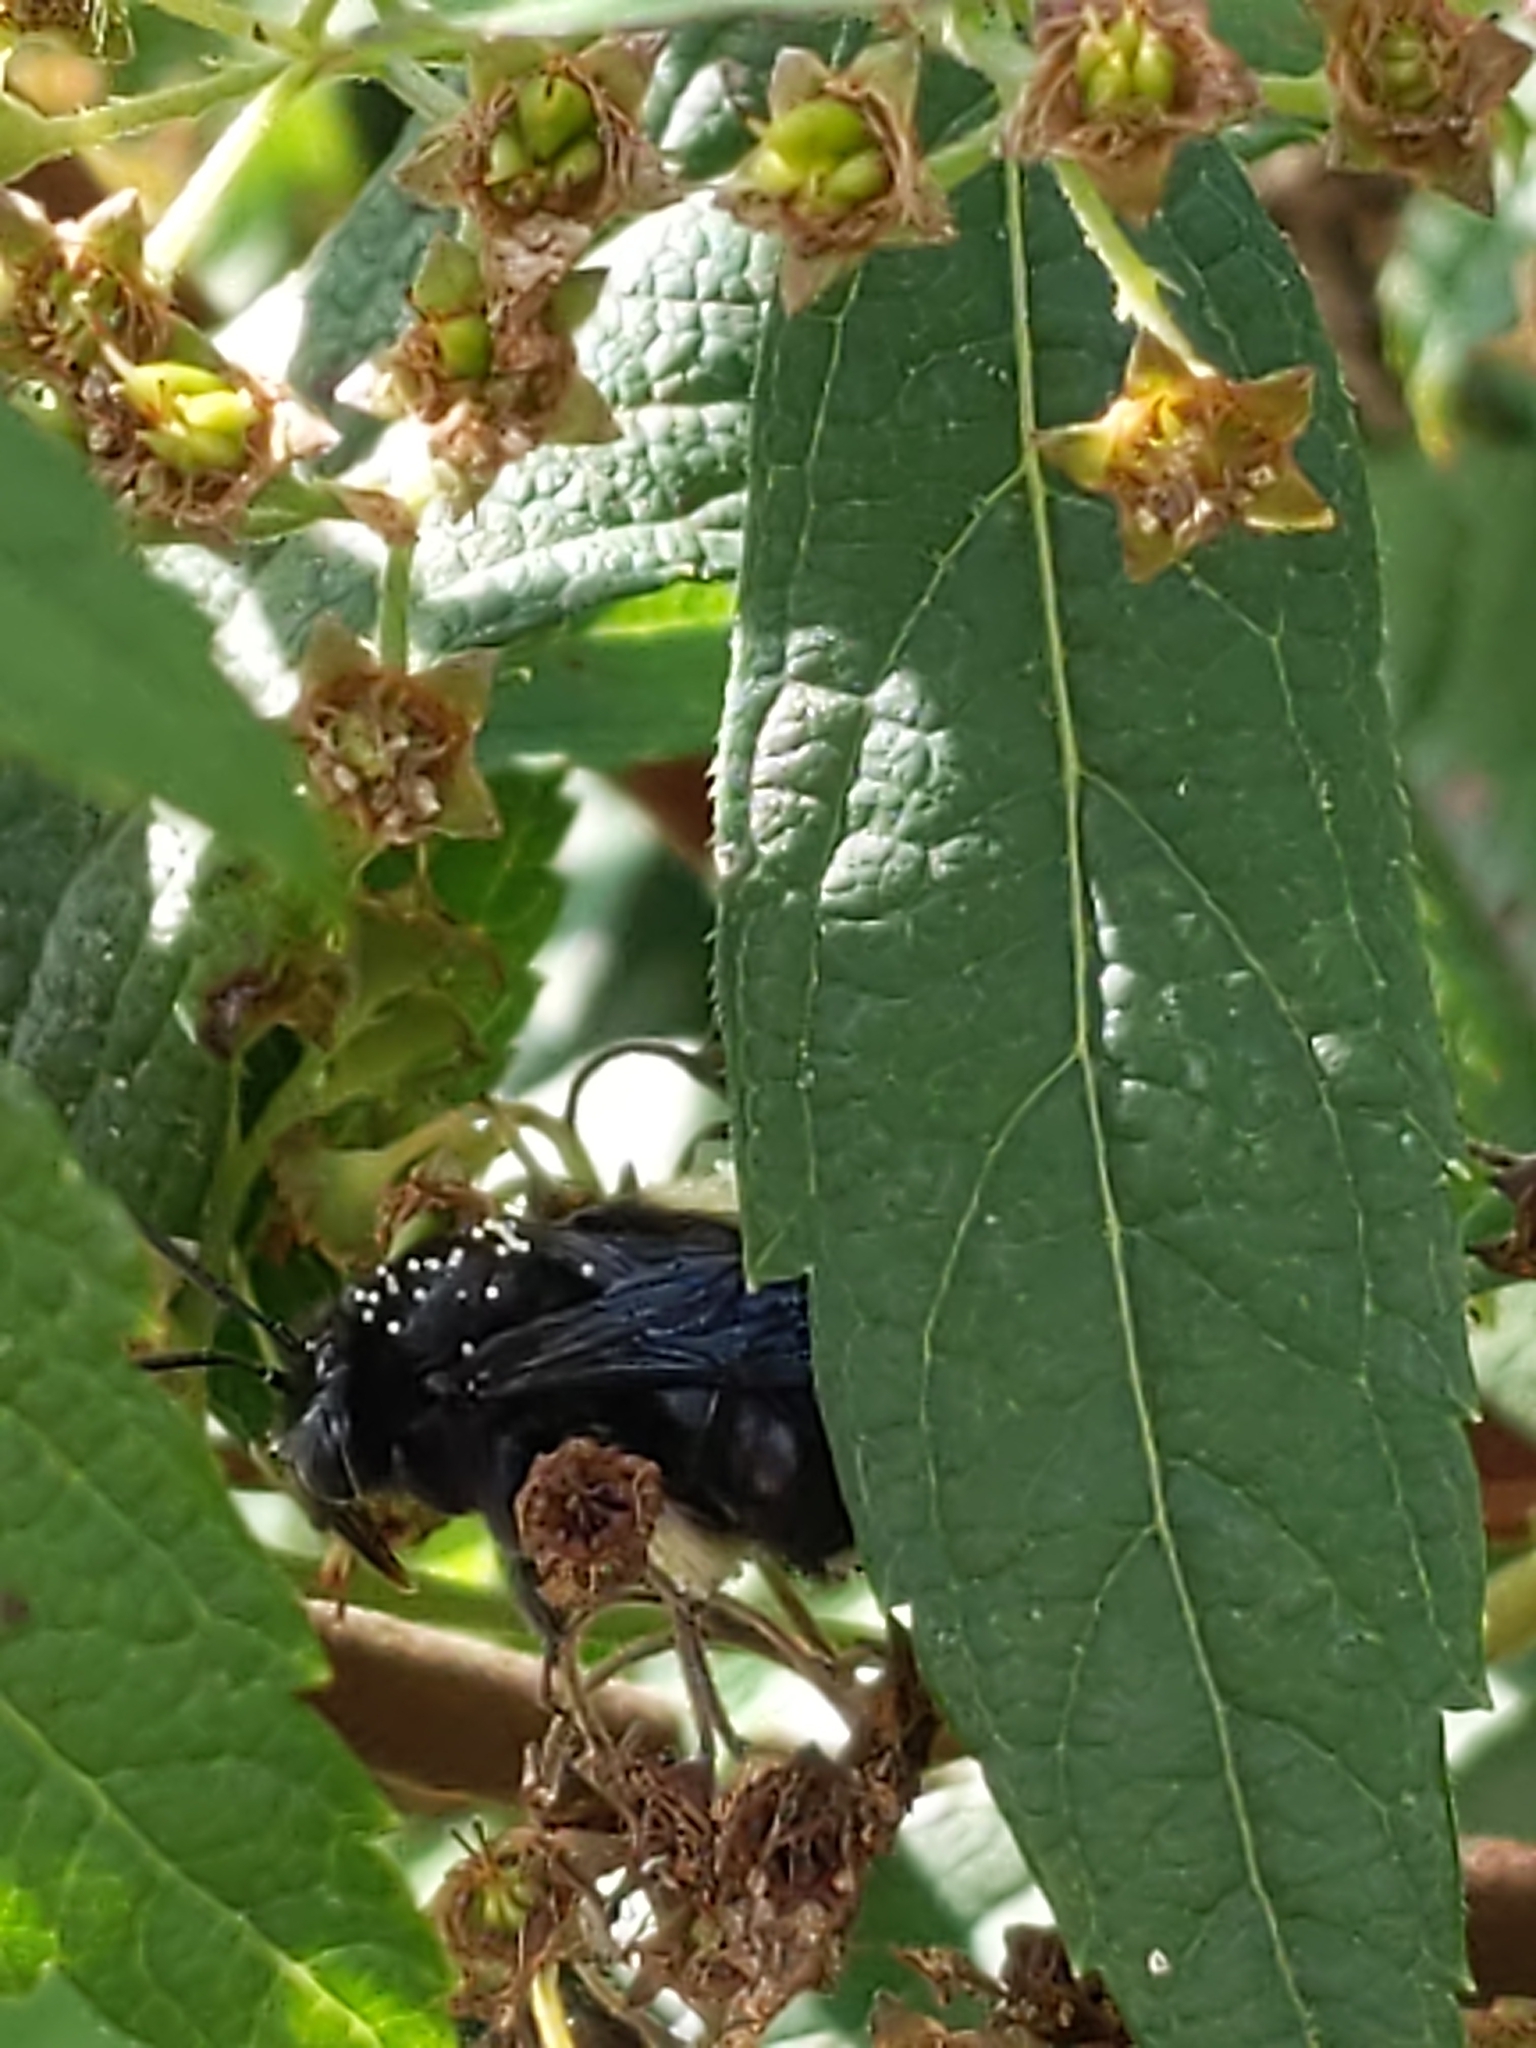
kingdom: Animalia
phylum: Arthropoda
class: Insecta
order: Hymenoptera
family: Apidae
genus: Melissodes
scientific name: Melissodes bimaculatus
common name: Two-spotted long-horned bee
